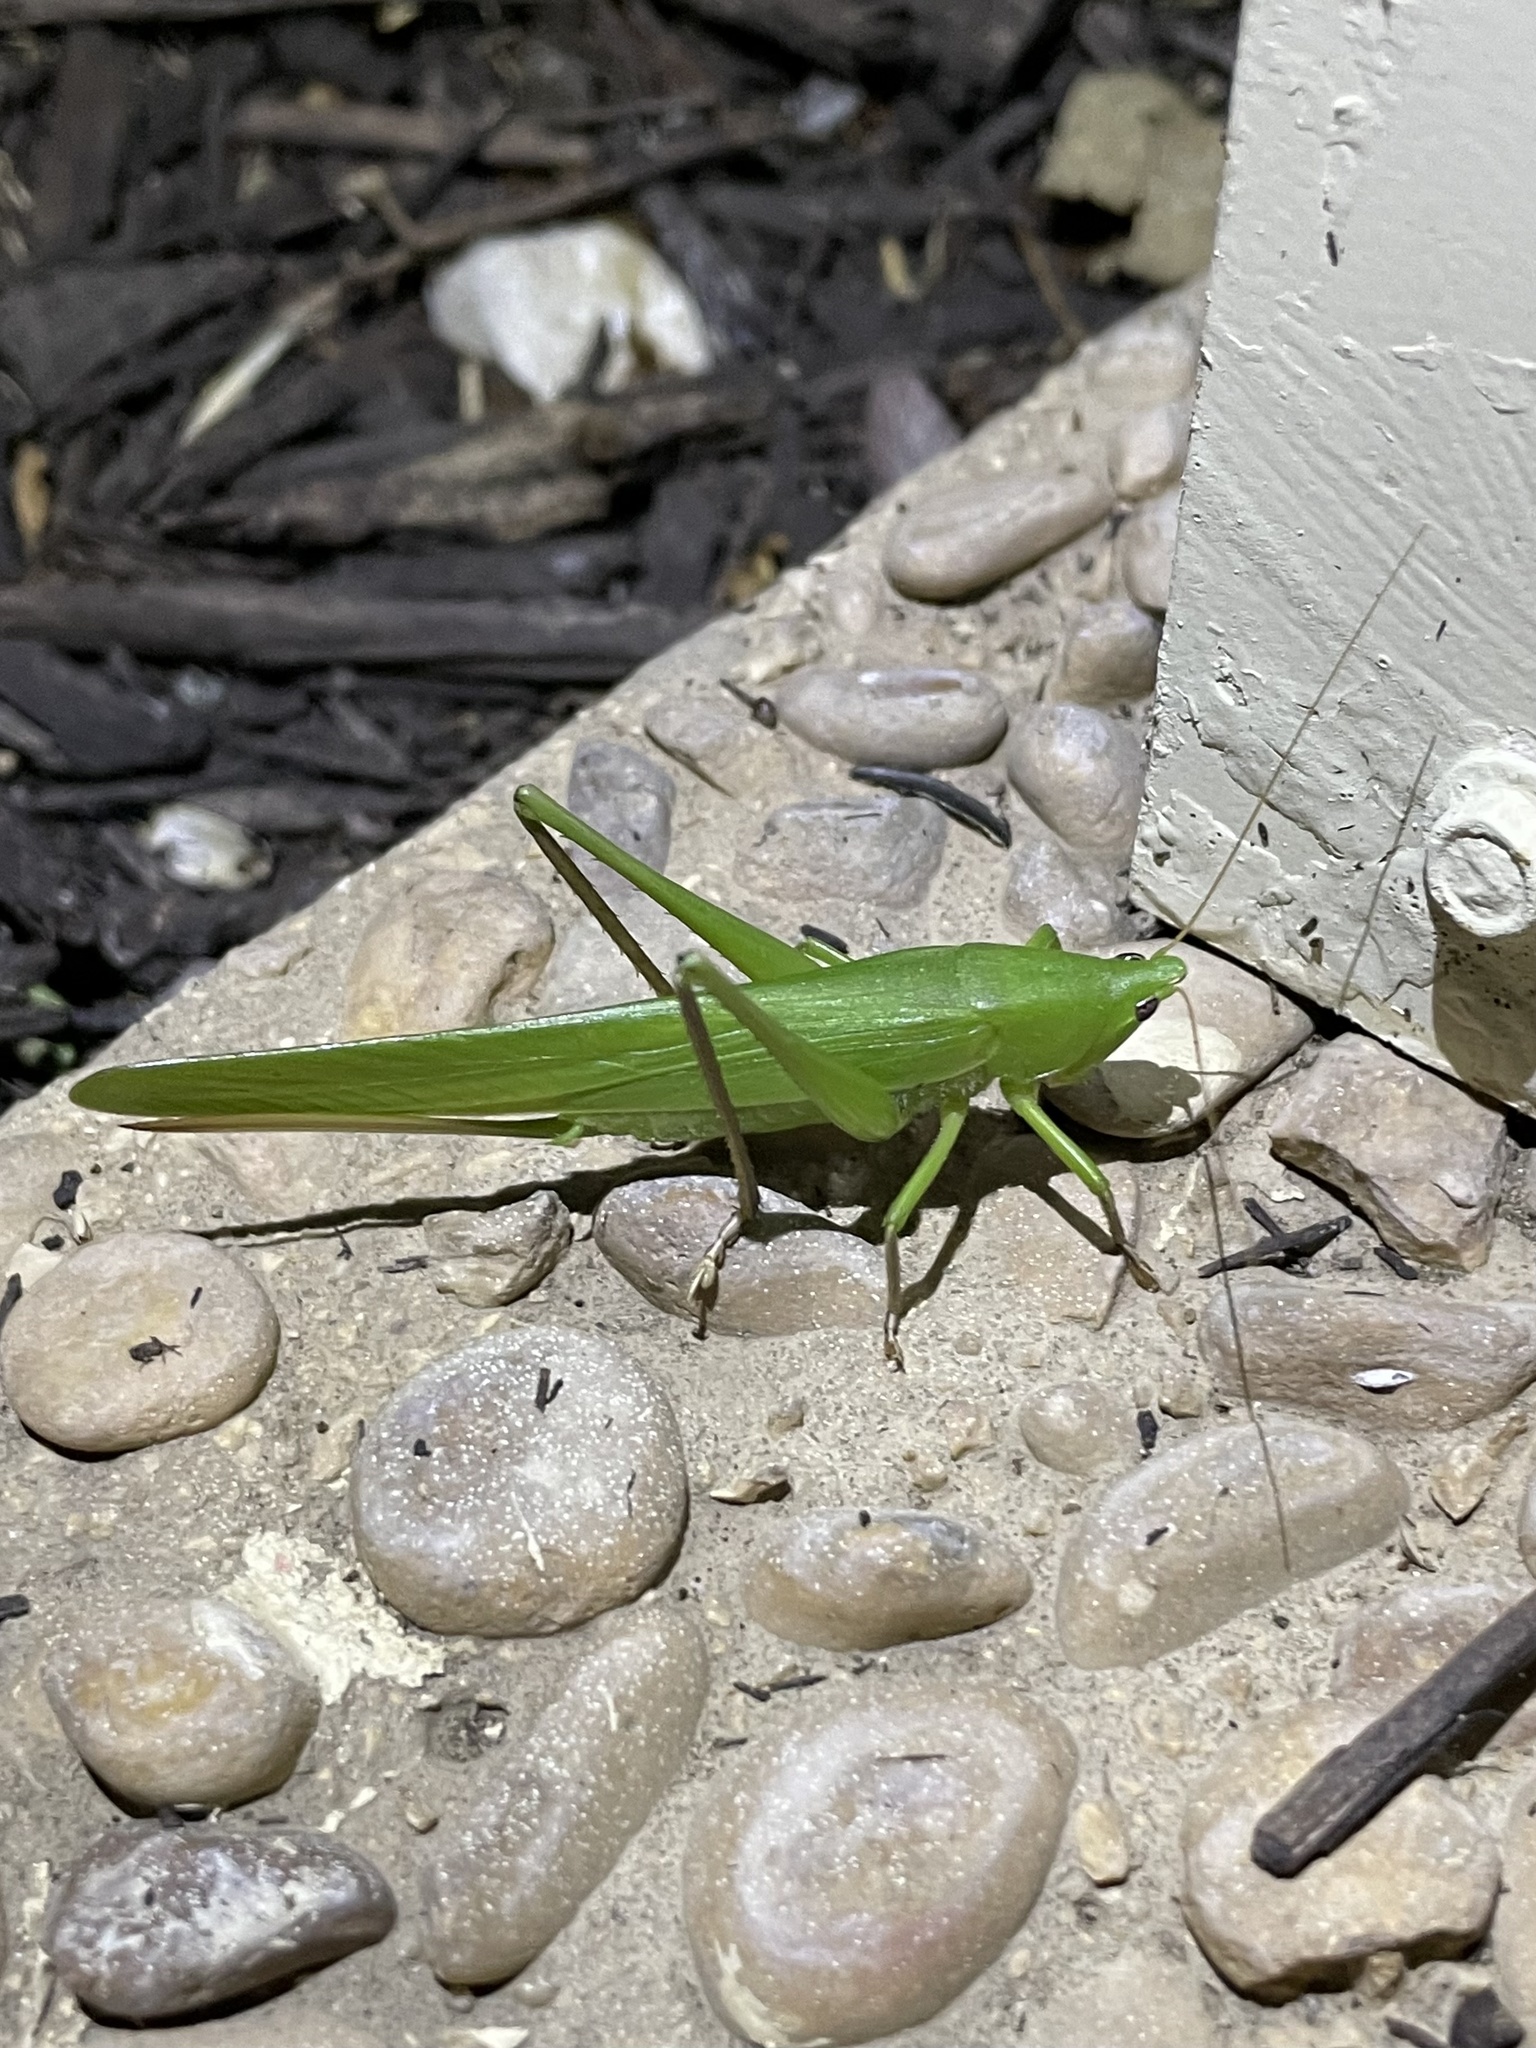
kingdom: Animalia
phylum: Arthropoda
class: Insecta
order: Orthoptera
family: Tettigoniidae
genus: Neoconocephalus
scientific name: Neoconocephalus triops
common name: Broad-tipped conehead
